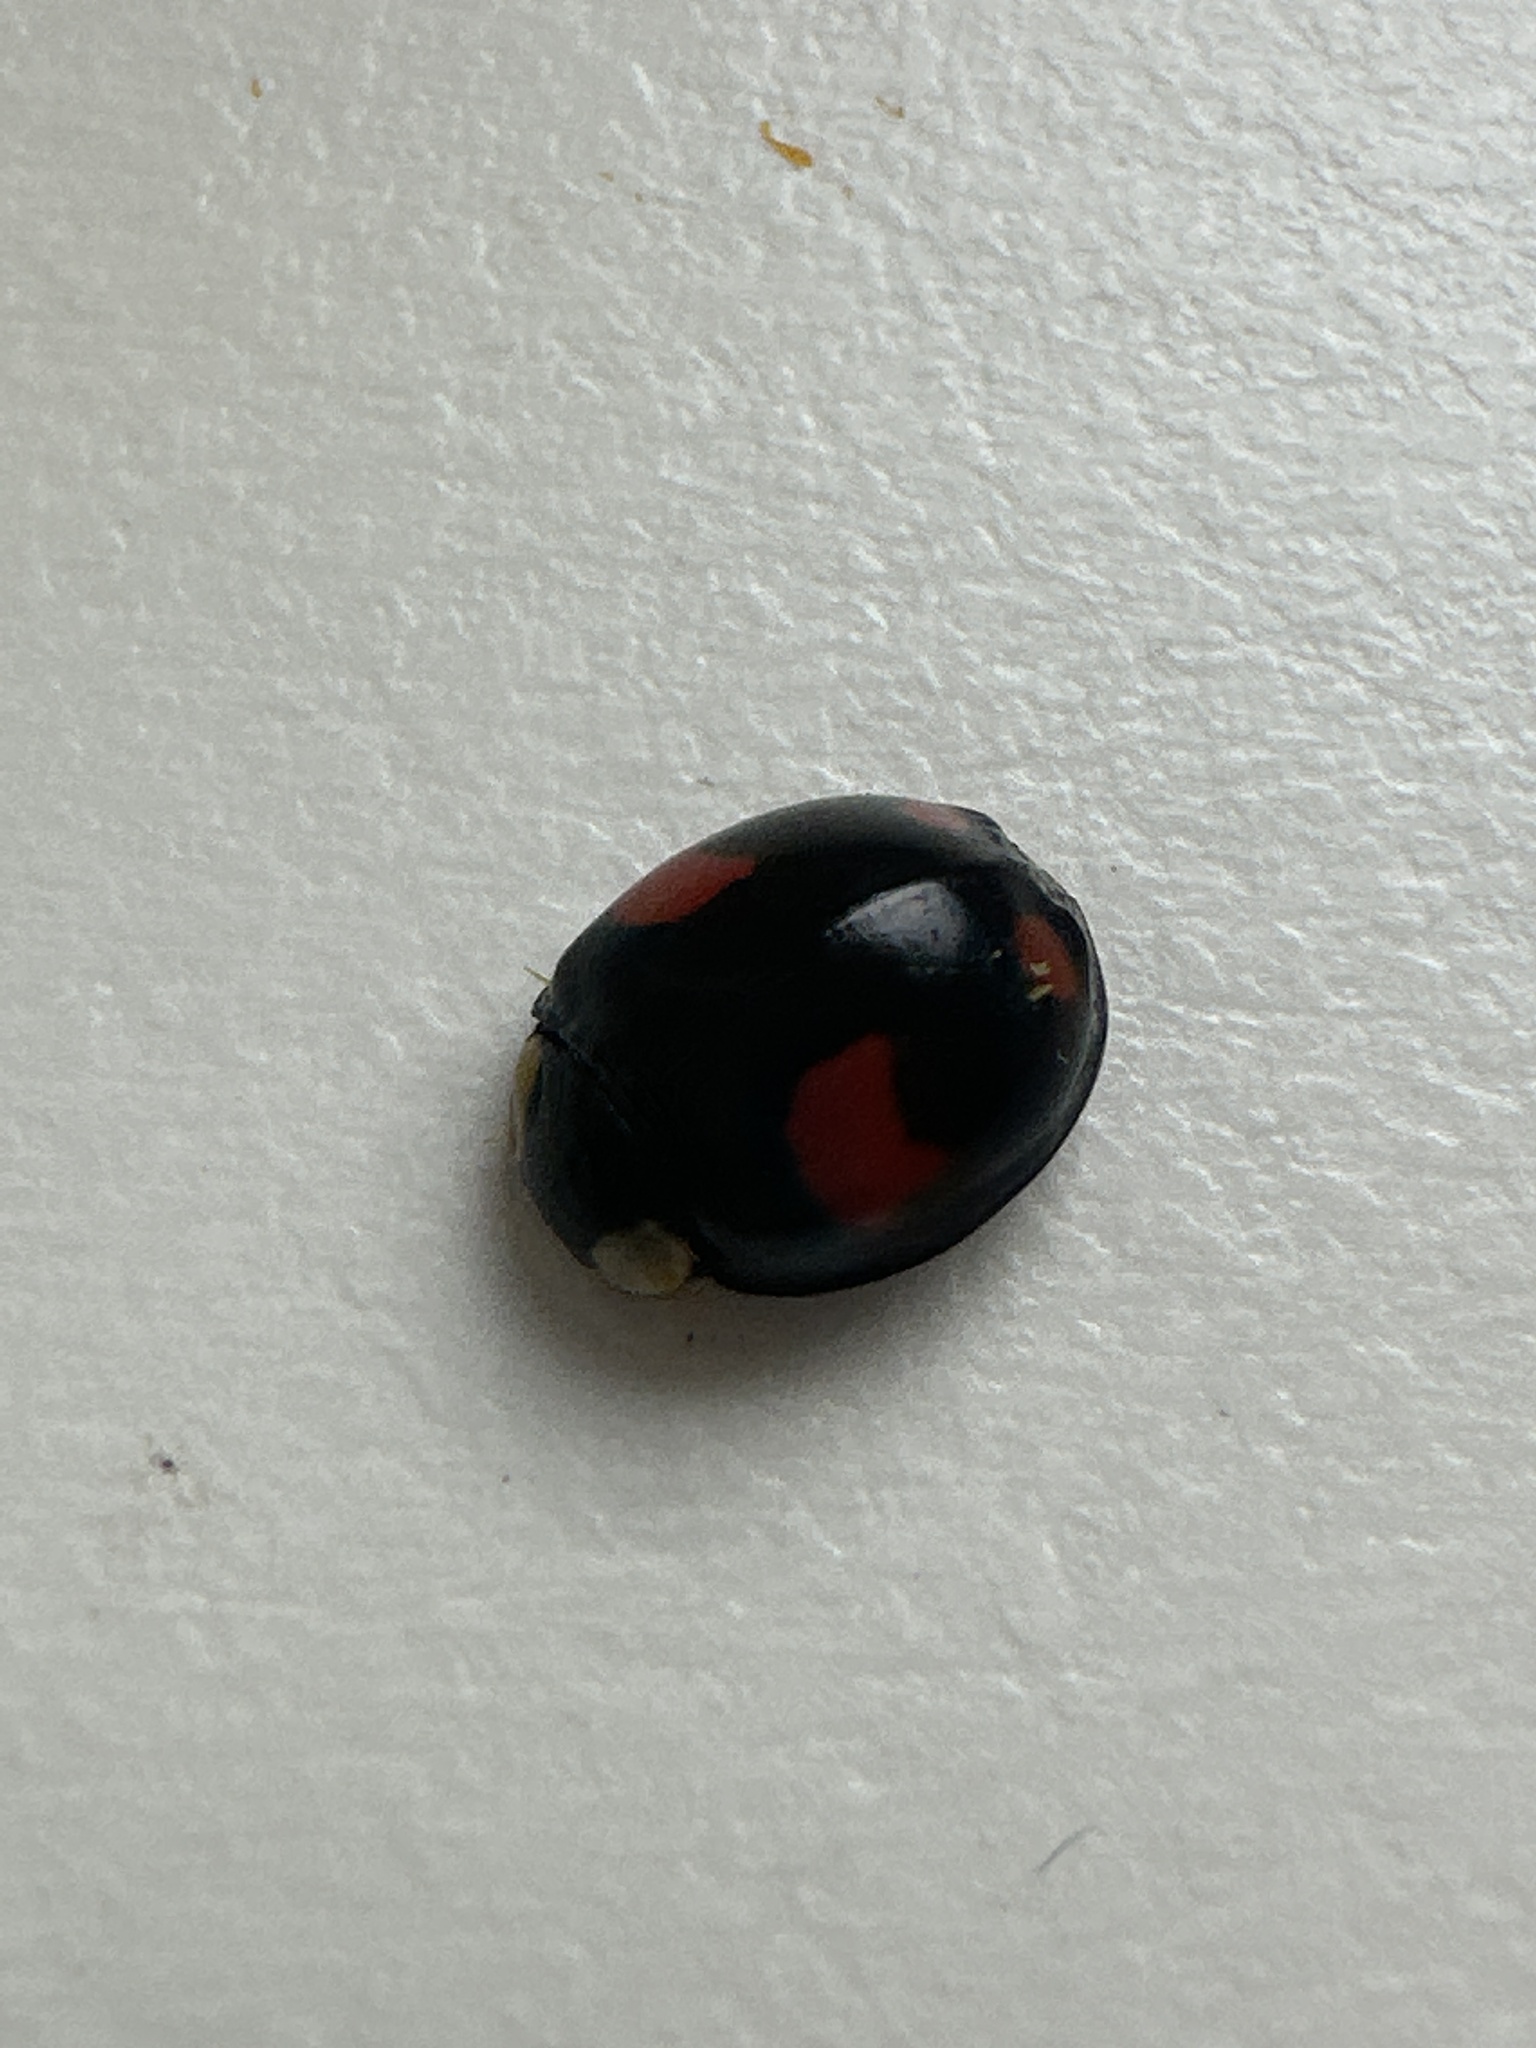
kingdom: Animalia
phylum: Arthropoda
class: Insecta
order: Coleoptera
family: Coccinellidae
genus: Harmonia
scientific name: Harmonia axyridis
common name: Harlequin ladybird
